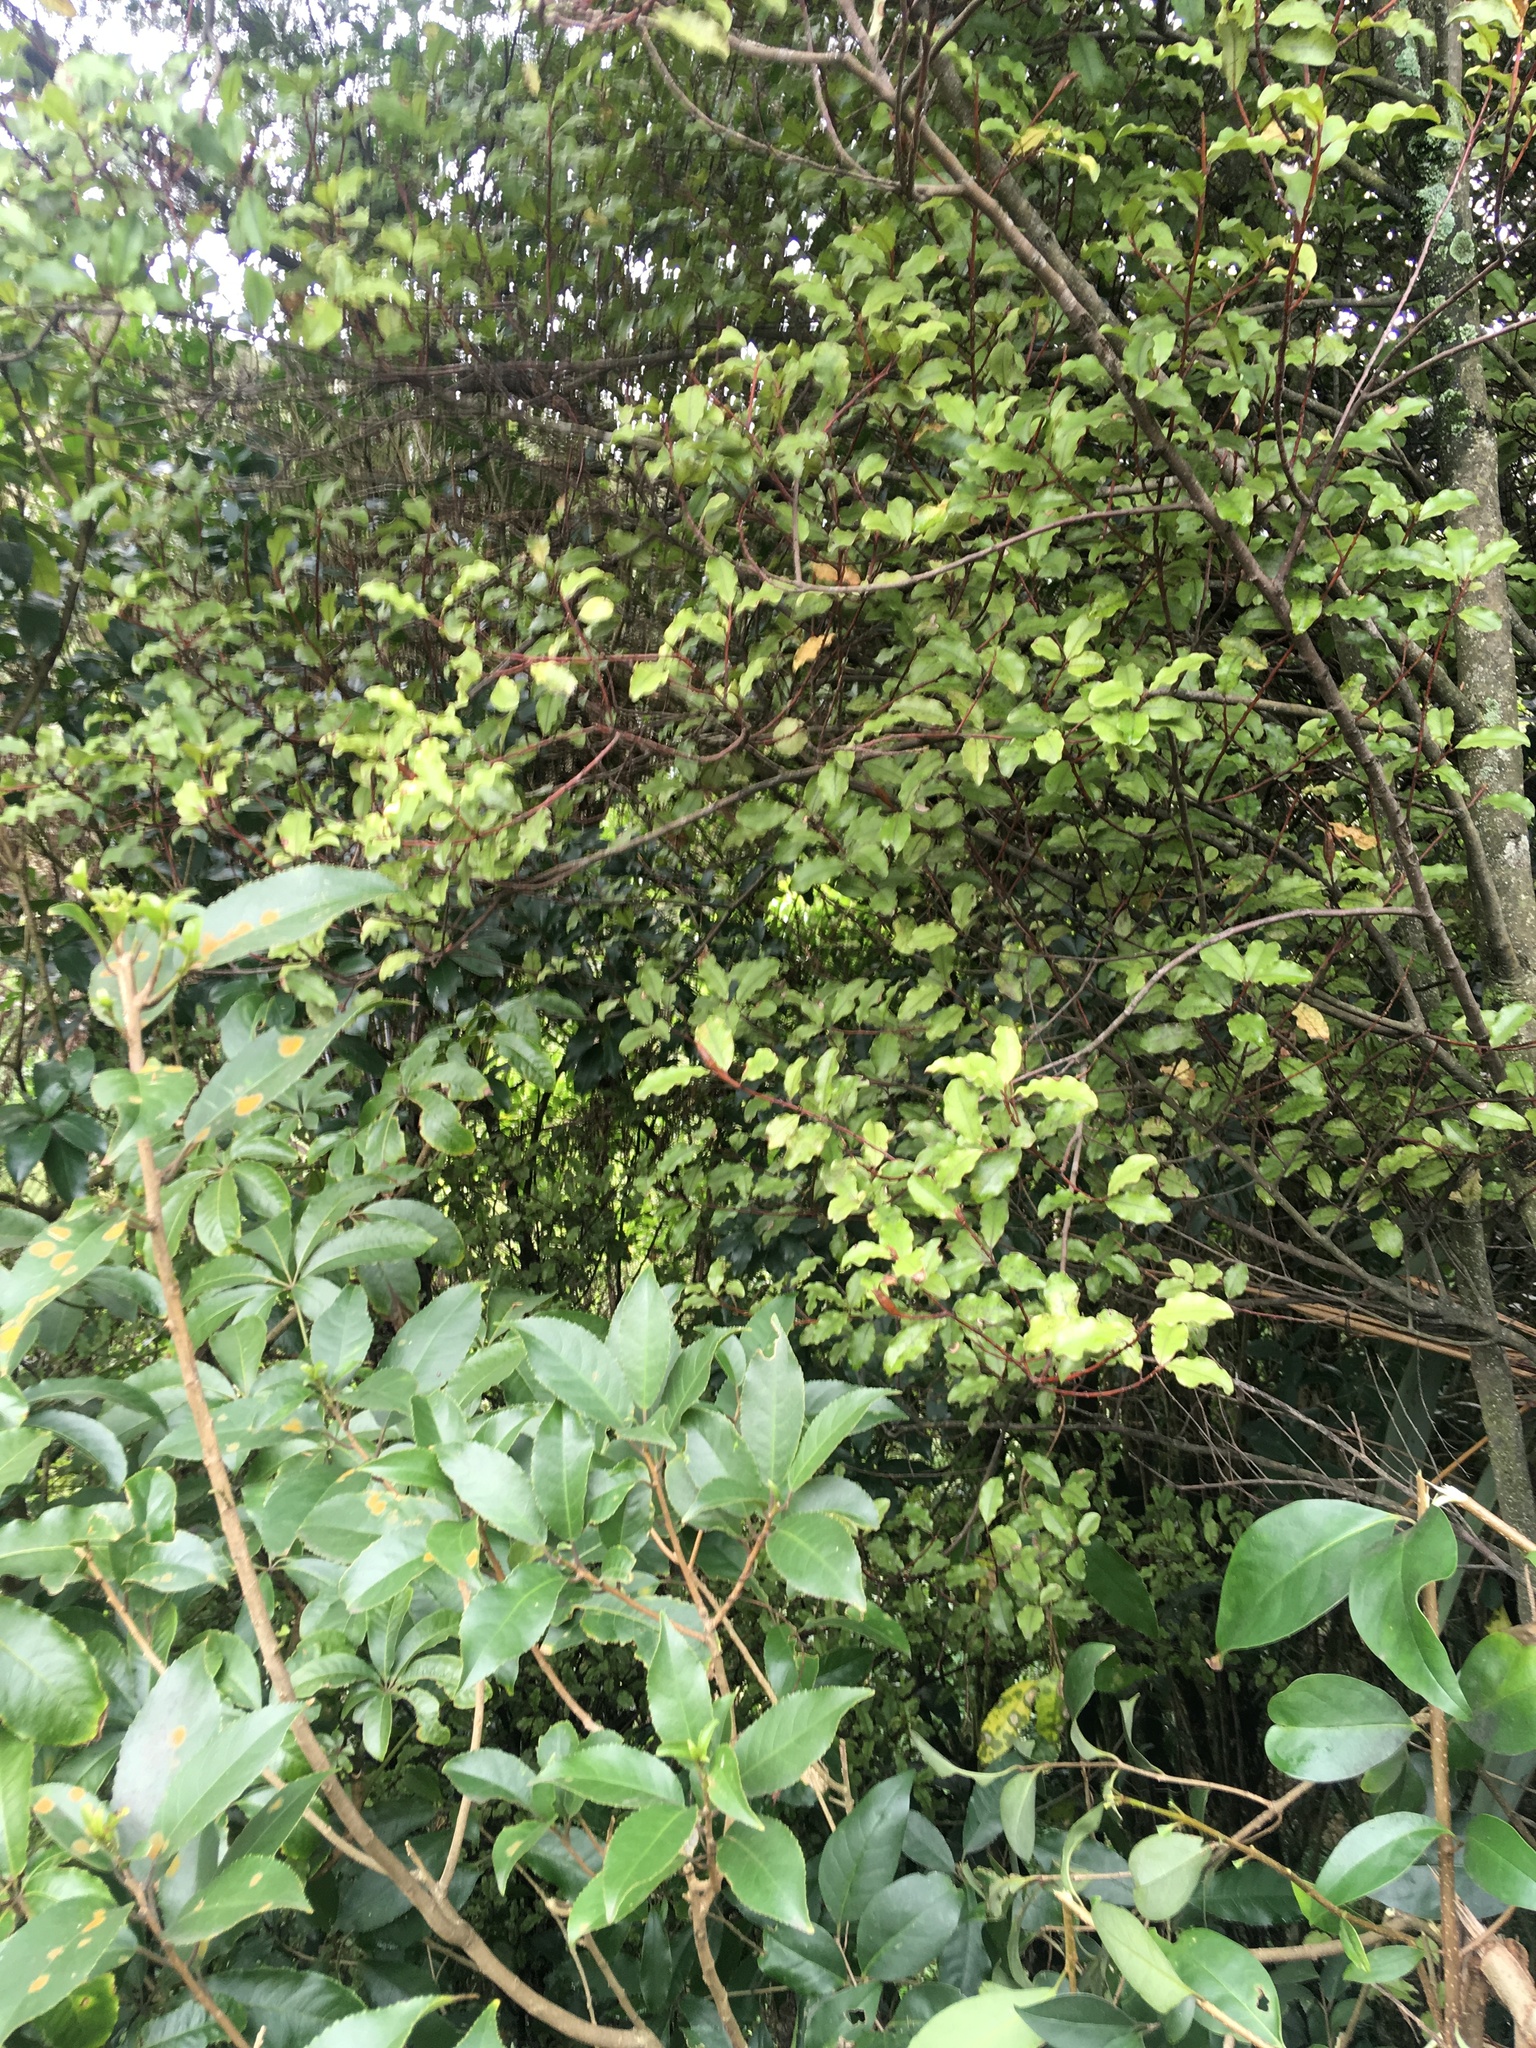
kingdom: Plantae
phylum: Tracheophyta
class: Magnoliopsida
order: Malpighiales
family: Violaceae
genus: Melicytus
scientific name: Melicytus ramiflorus
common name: Mahoe
